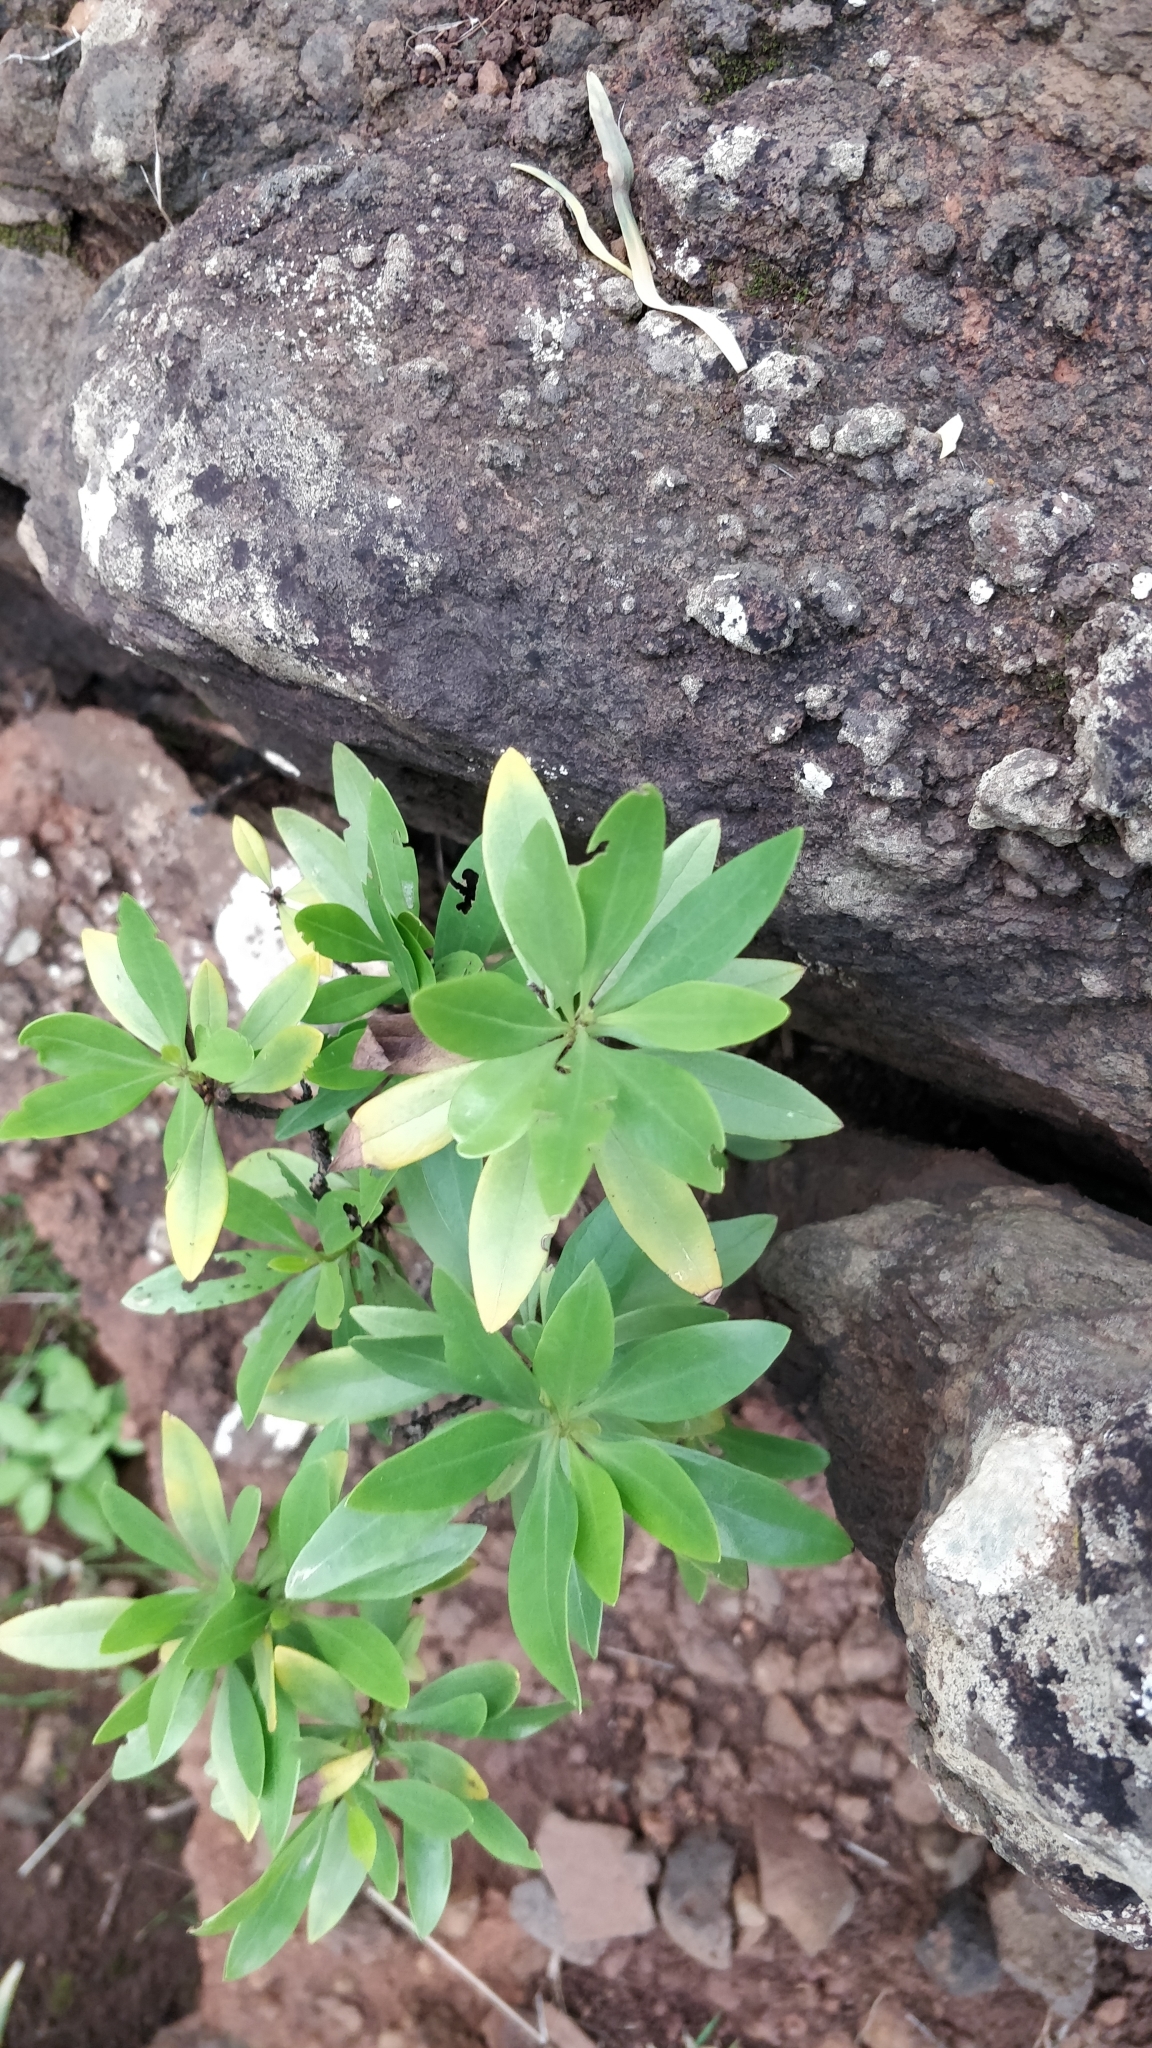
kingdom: Plantae
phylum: Tracheophyta
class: Magnoliopsida
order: Lamiales
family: Plantaginaceae
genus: Globularia
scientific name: Globularia salicina
